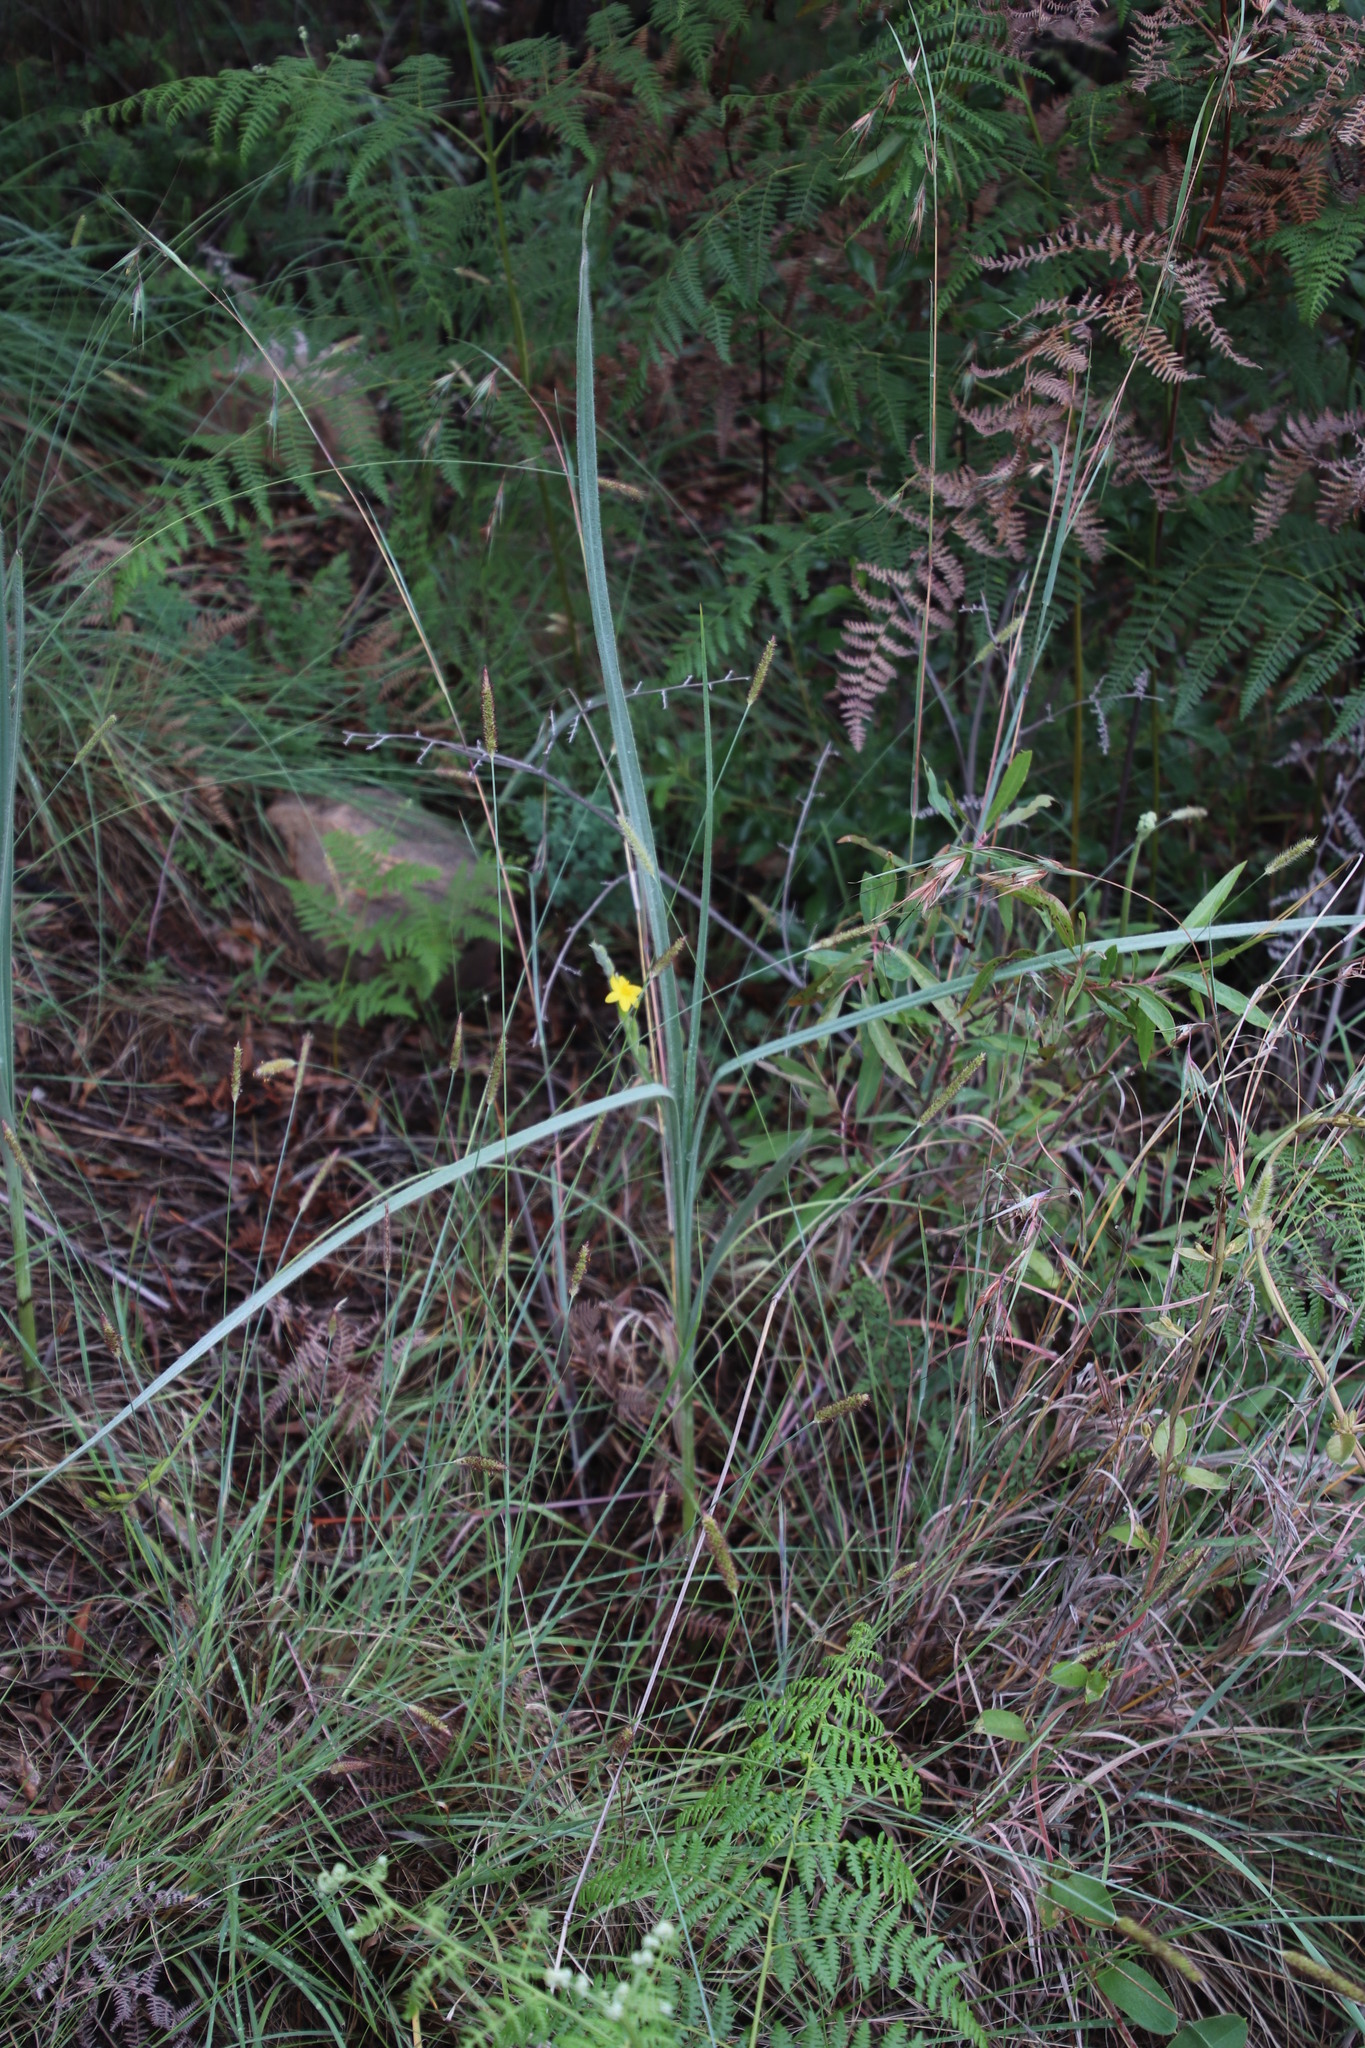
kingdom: Plantae
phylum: Tracheophyta
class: Liliopsida
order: Asparagales
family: Hypoxidaceae
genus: Hypoxis
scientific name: Hypoxis rigidula
